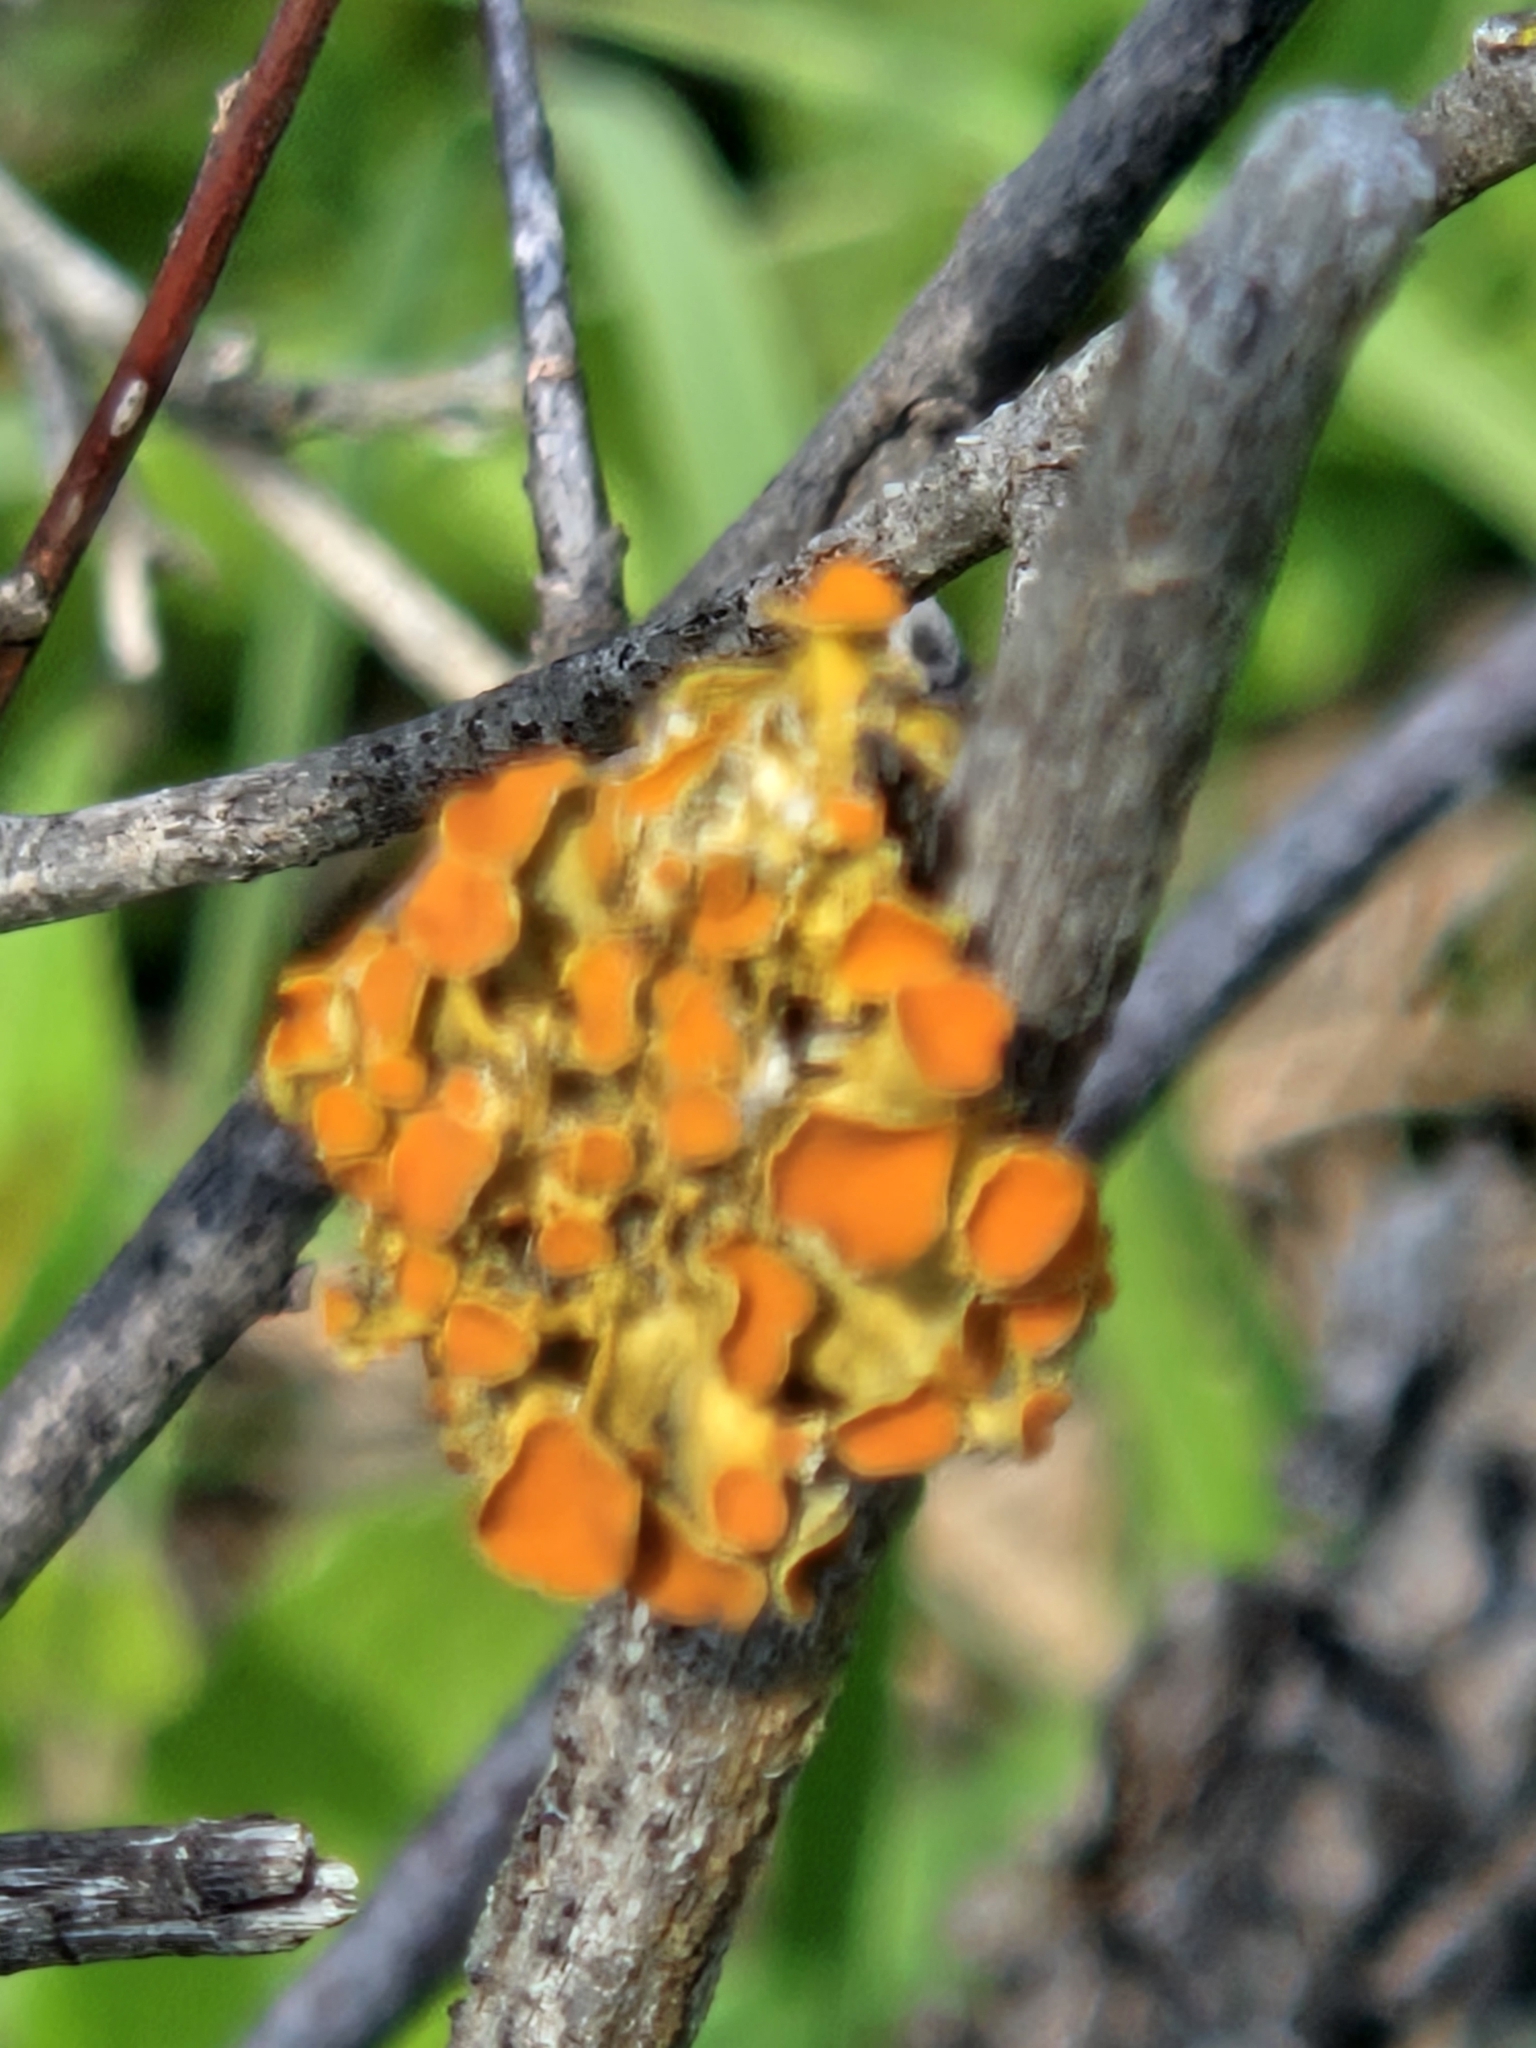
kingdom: Fungi
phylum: Ascomycota
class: Lecanoromycetes
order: Teloschistales
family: Teloschistaceae
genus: Niorma
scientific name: Niorma chrysophthalma
